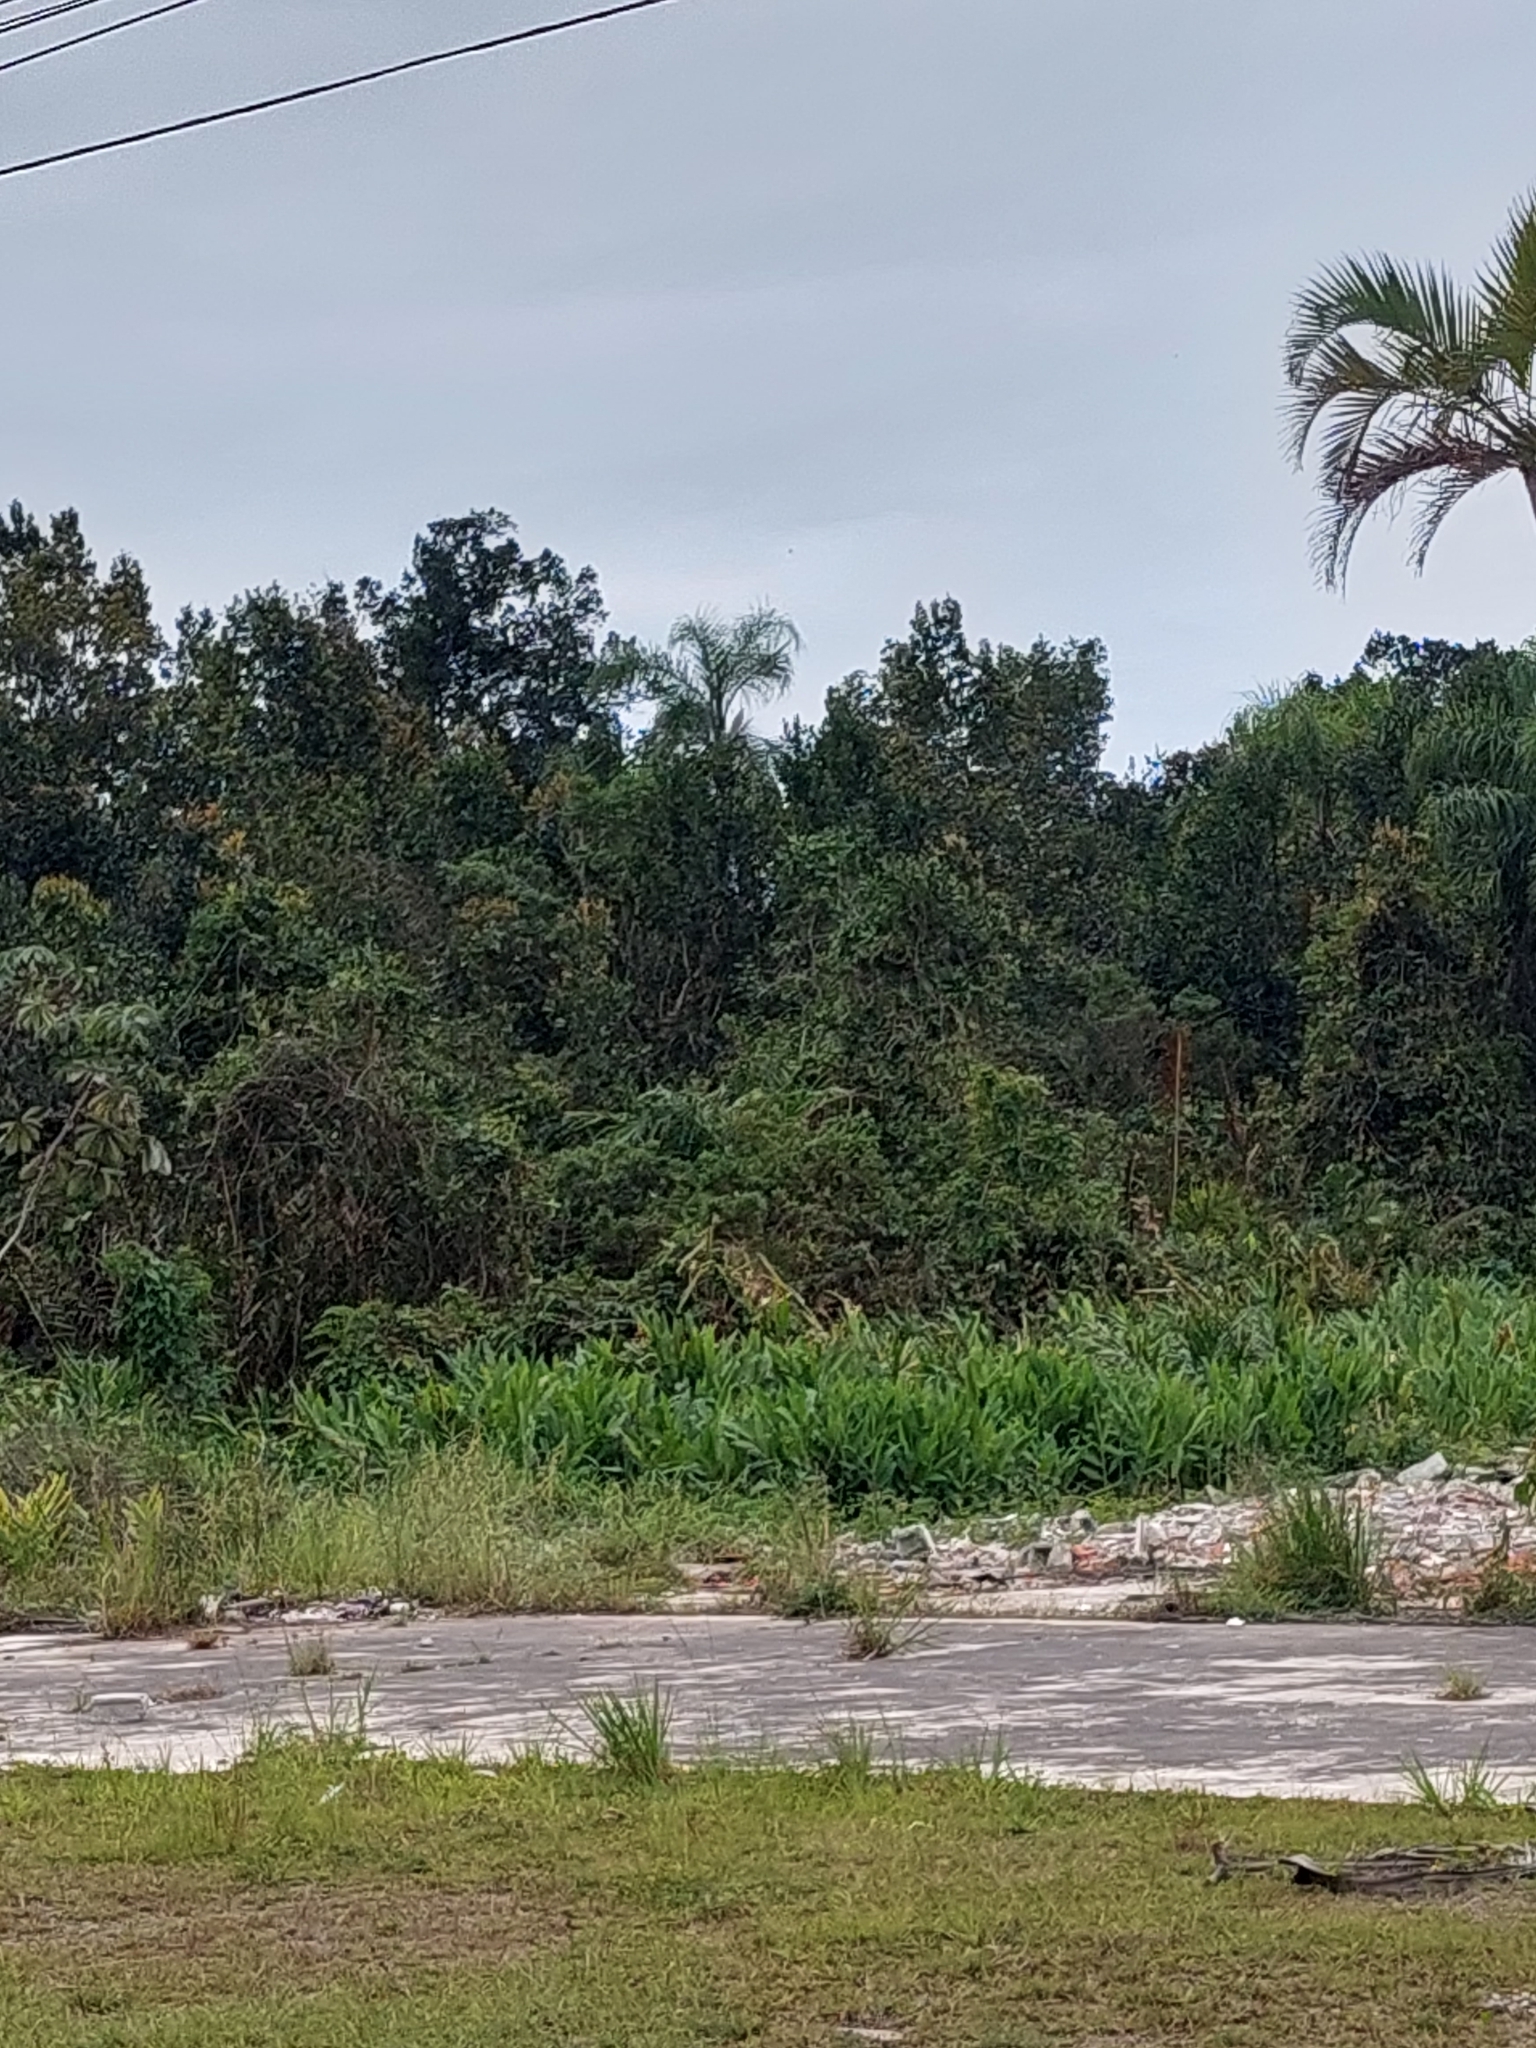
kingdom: Plantae
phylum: Tracheophyta
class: Liliopsida
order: Zingiberales
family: Zingiberaceae
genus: Hedychium
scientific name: Hedychium coronarium
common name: White garland-lily
